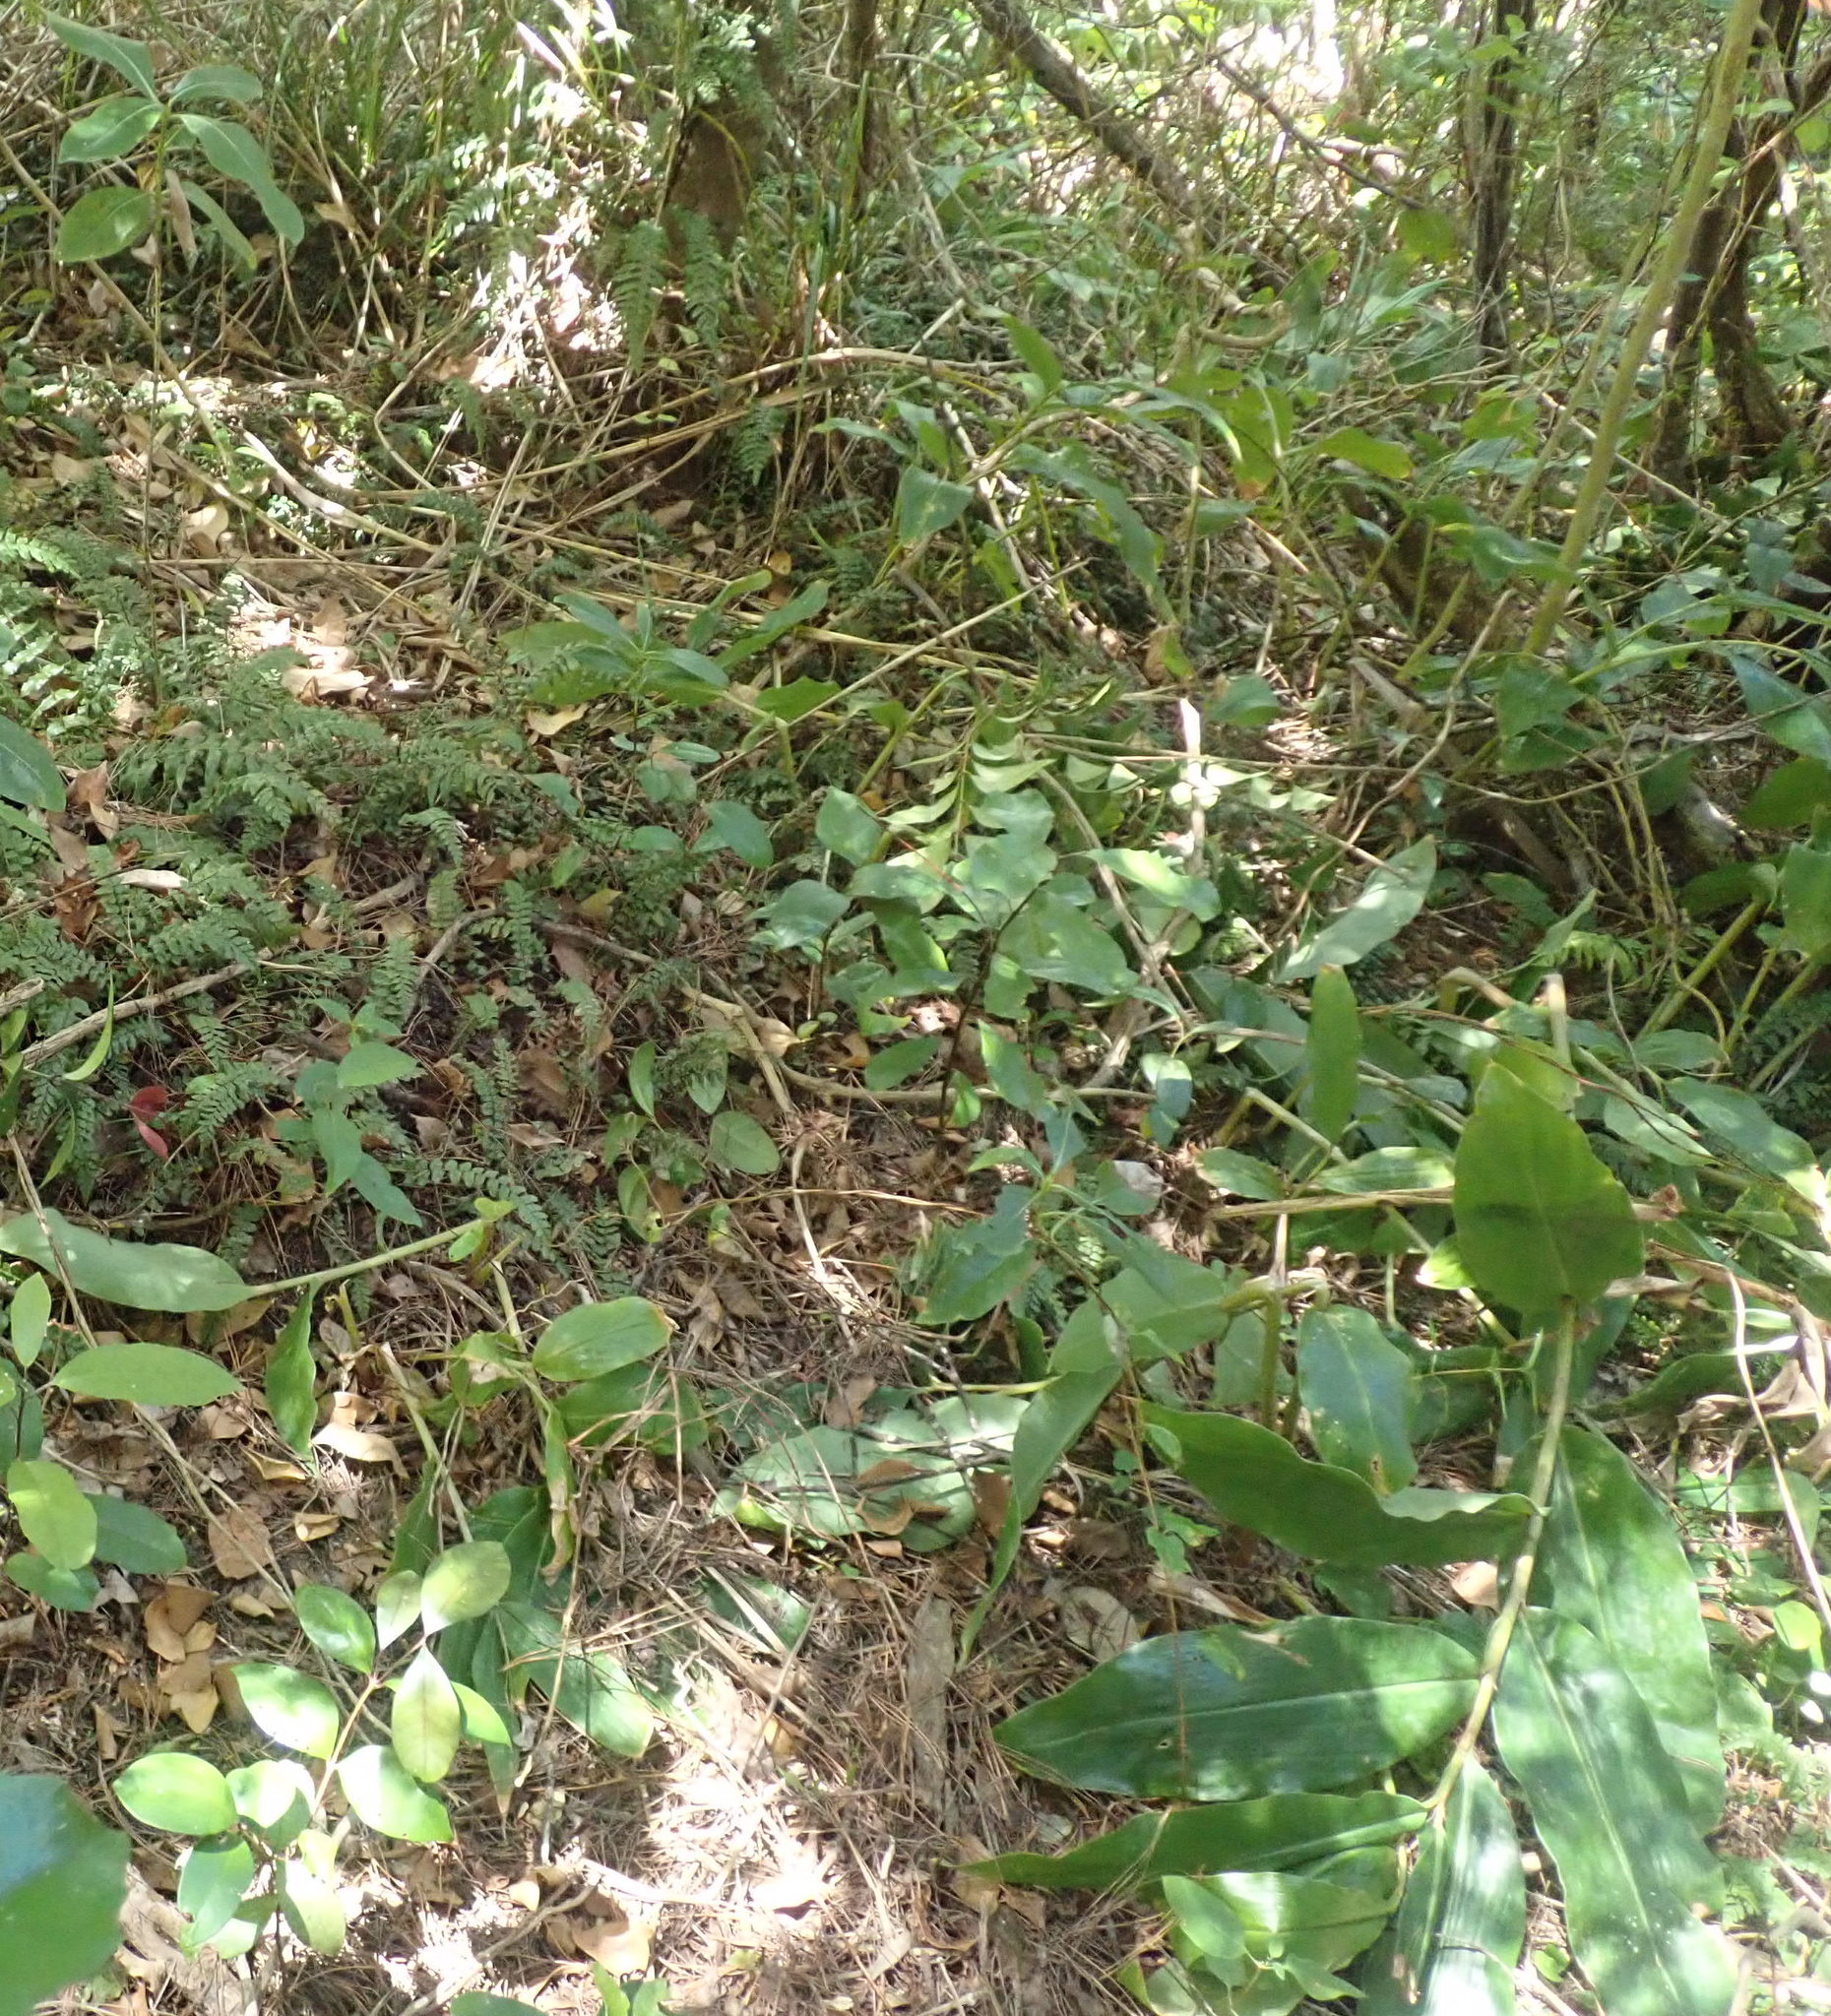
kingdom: Plantae
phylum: Tracheophyta
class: Liliopsida
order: Zingiberales
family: Zingiberaceae
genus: Hedychium
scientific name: Hedychium gardnerianum
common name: Himalayan ginger
